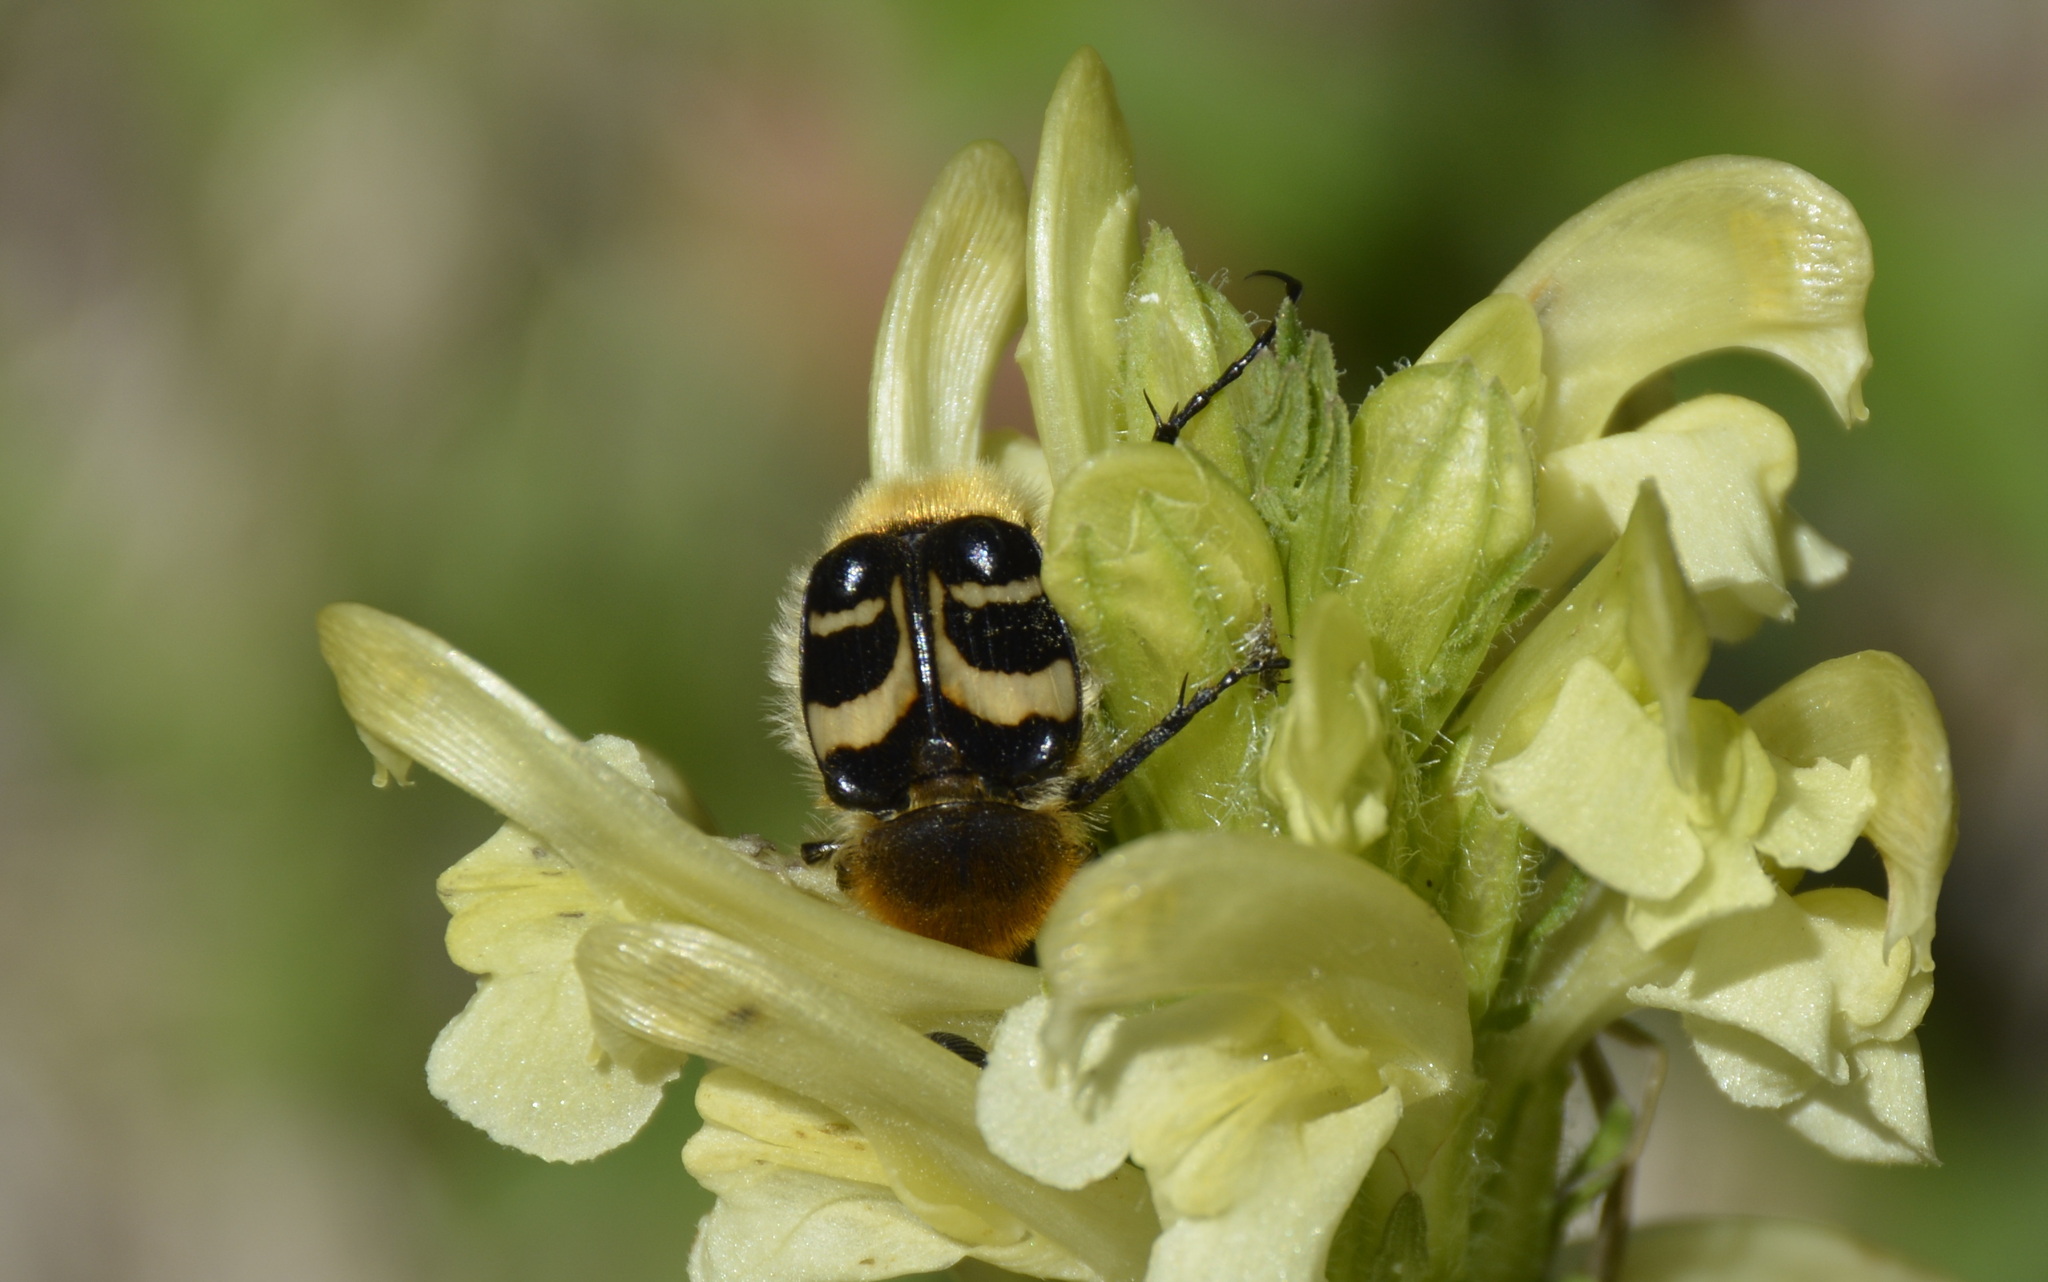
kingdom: Animalia
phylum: Arthropoda
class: Insecta
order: Coleoptera
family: Scarabaeidae
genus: Trichius
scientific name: Trichius fasciatus
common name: Bee beetle
